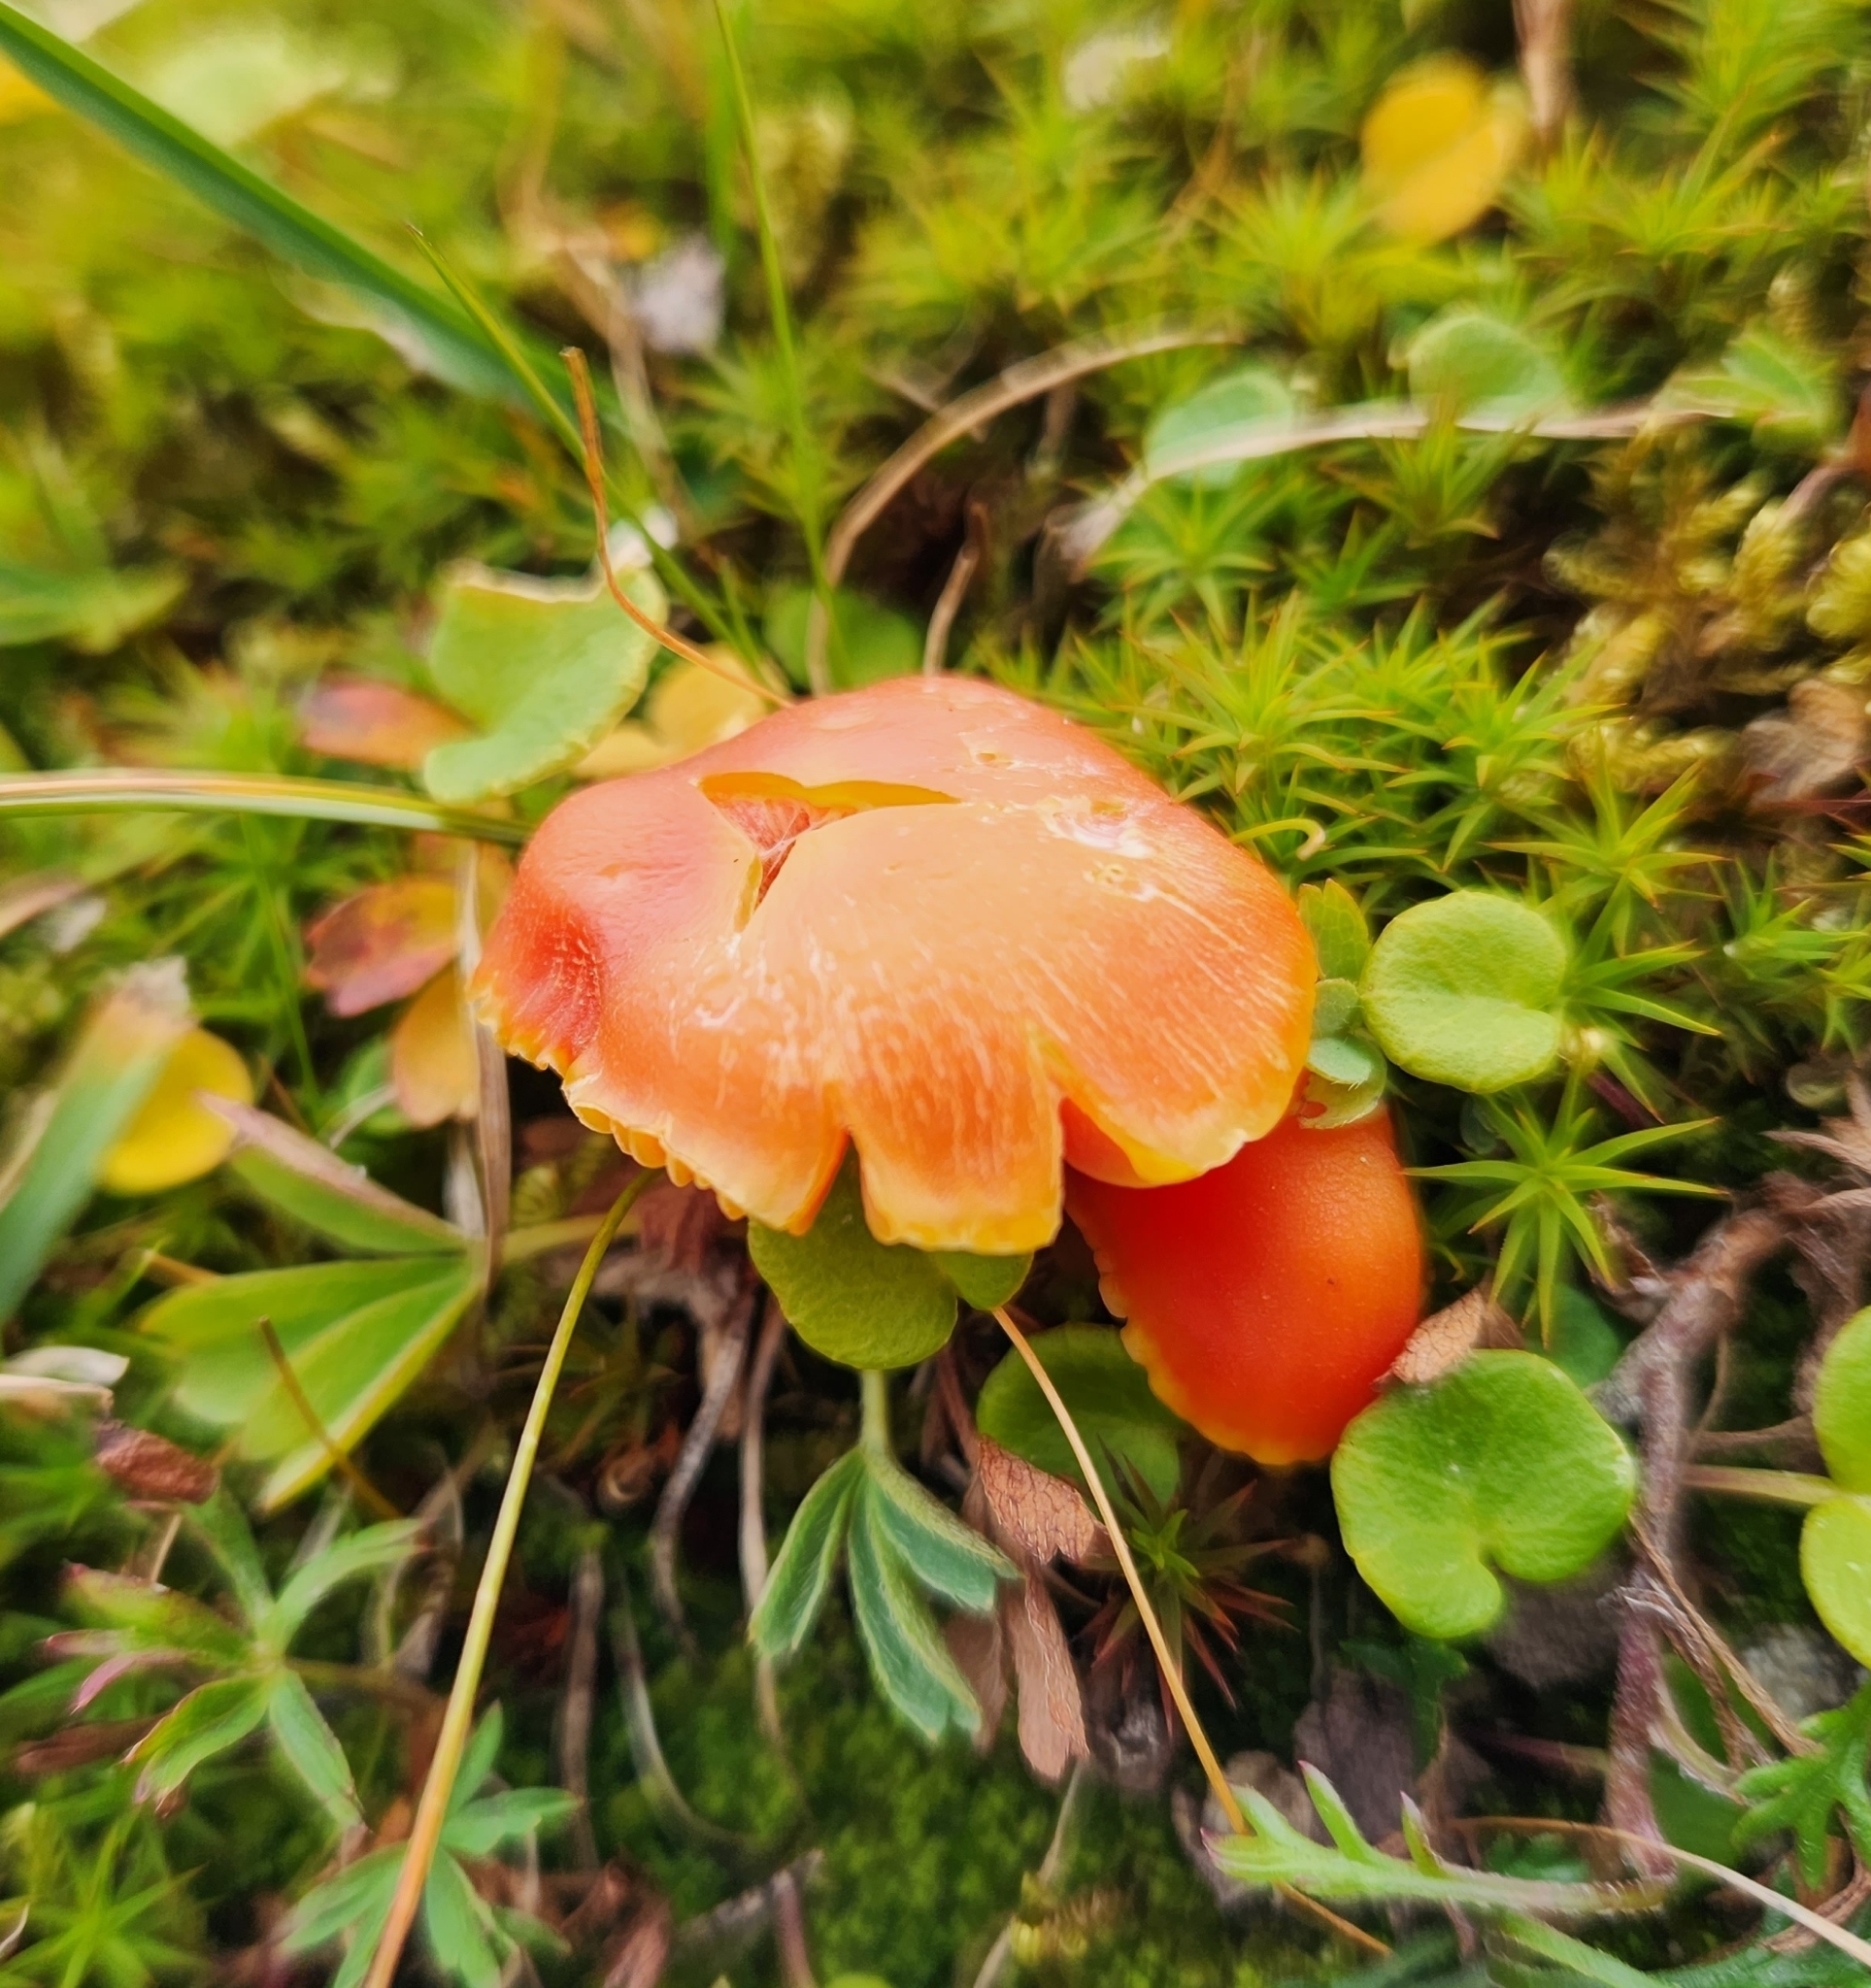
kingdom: Fungi
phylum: Basidiomycota
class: Agaricomycetes
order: Agaricales
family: Hygrophoraceae
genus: Hygrocybe
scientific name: Hygrocybe reidii
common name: Honey waxcap
